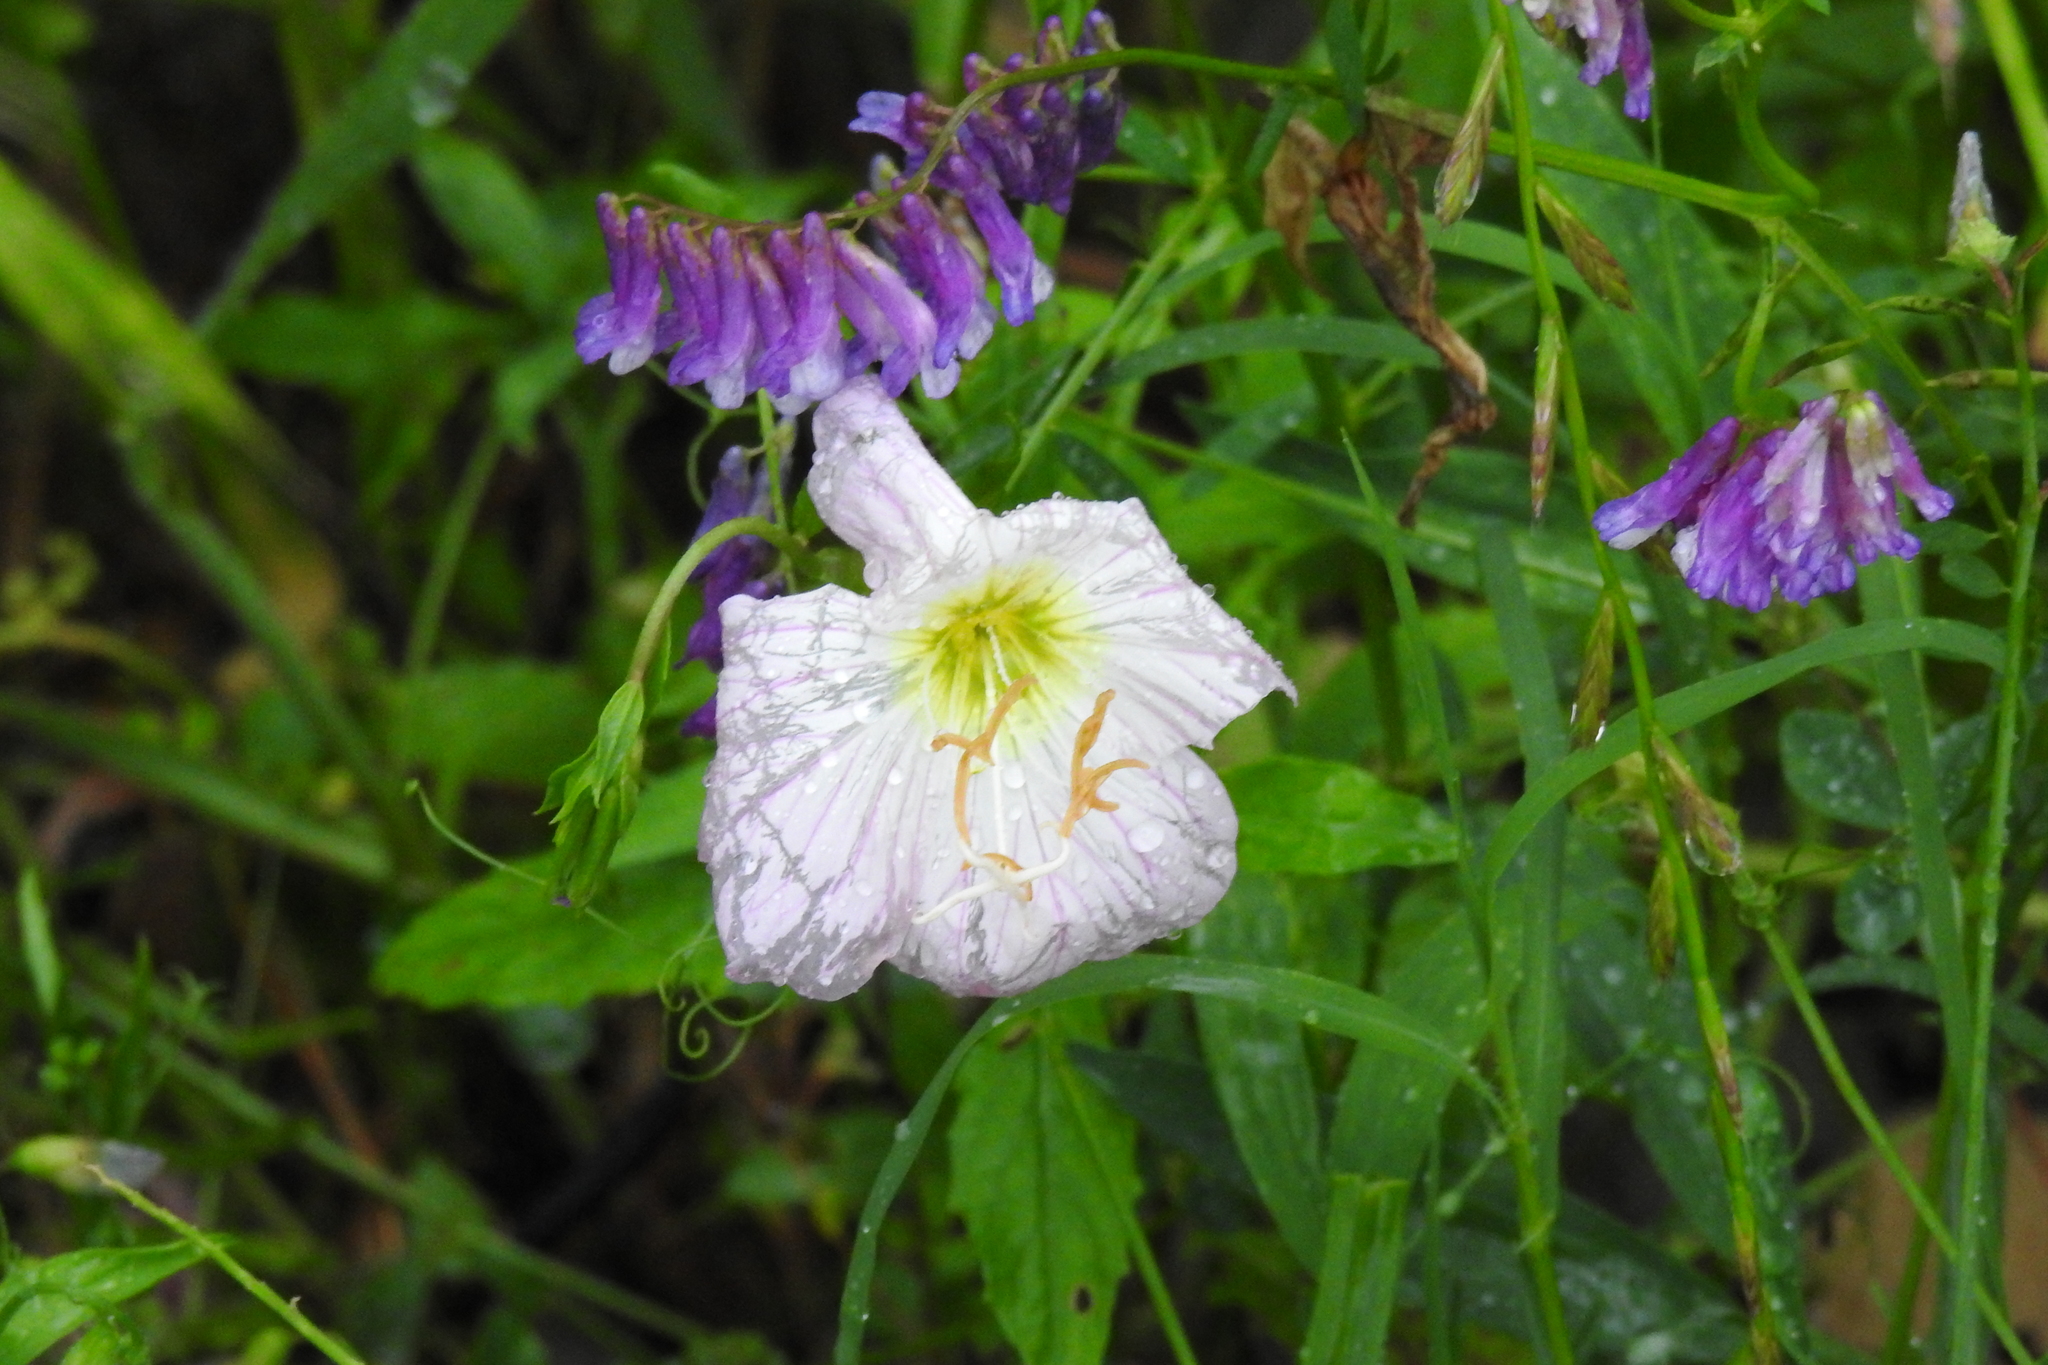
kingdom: Plantae
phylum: Tracheophyta
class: Magnoliopsida
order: Myrtales
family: Onagraceae
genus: Oenothera
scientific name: Oenothera speciosa
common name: White evening-primrose
